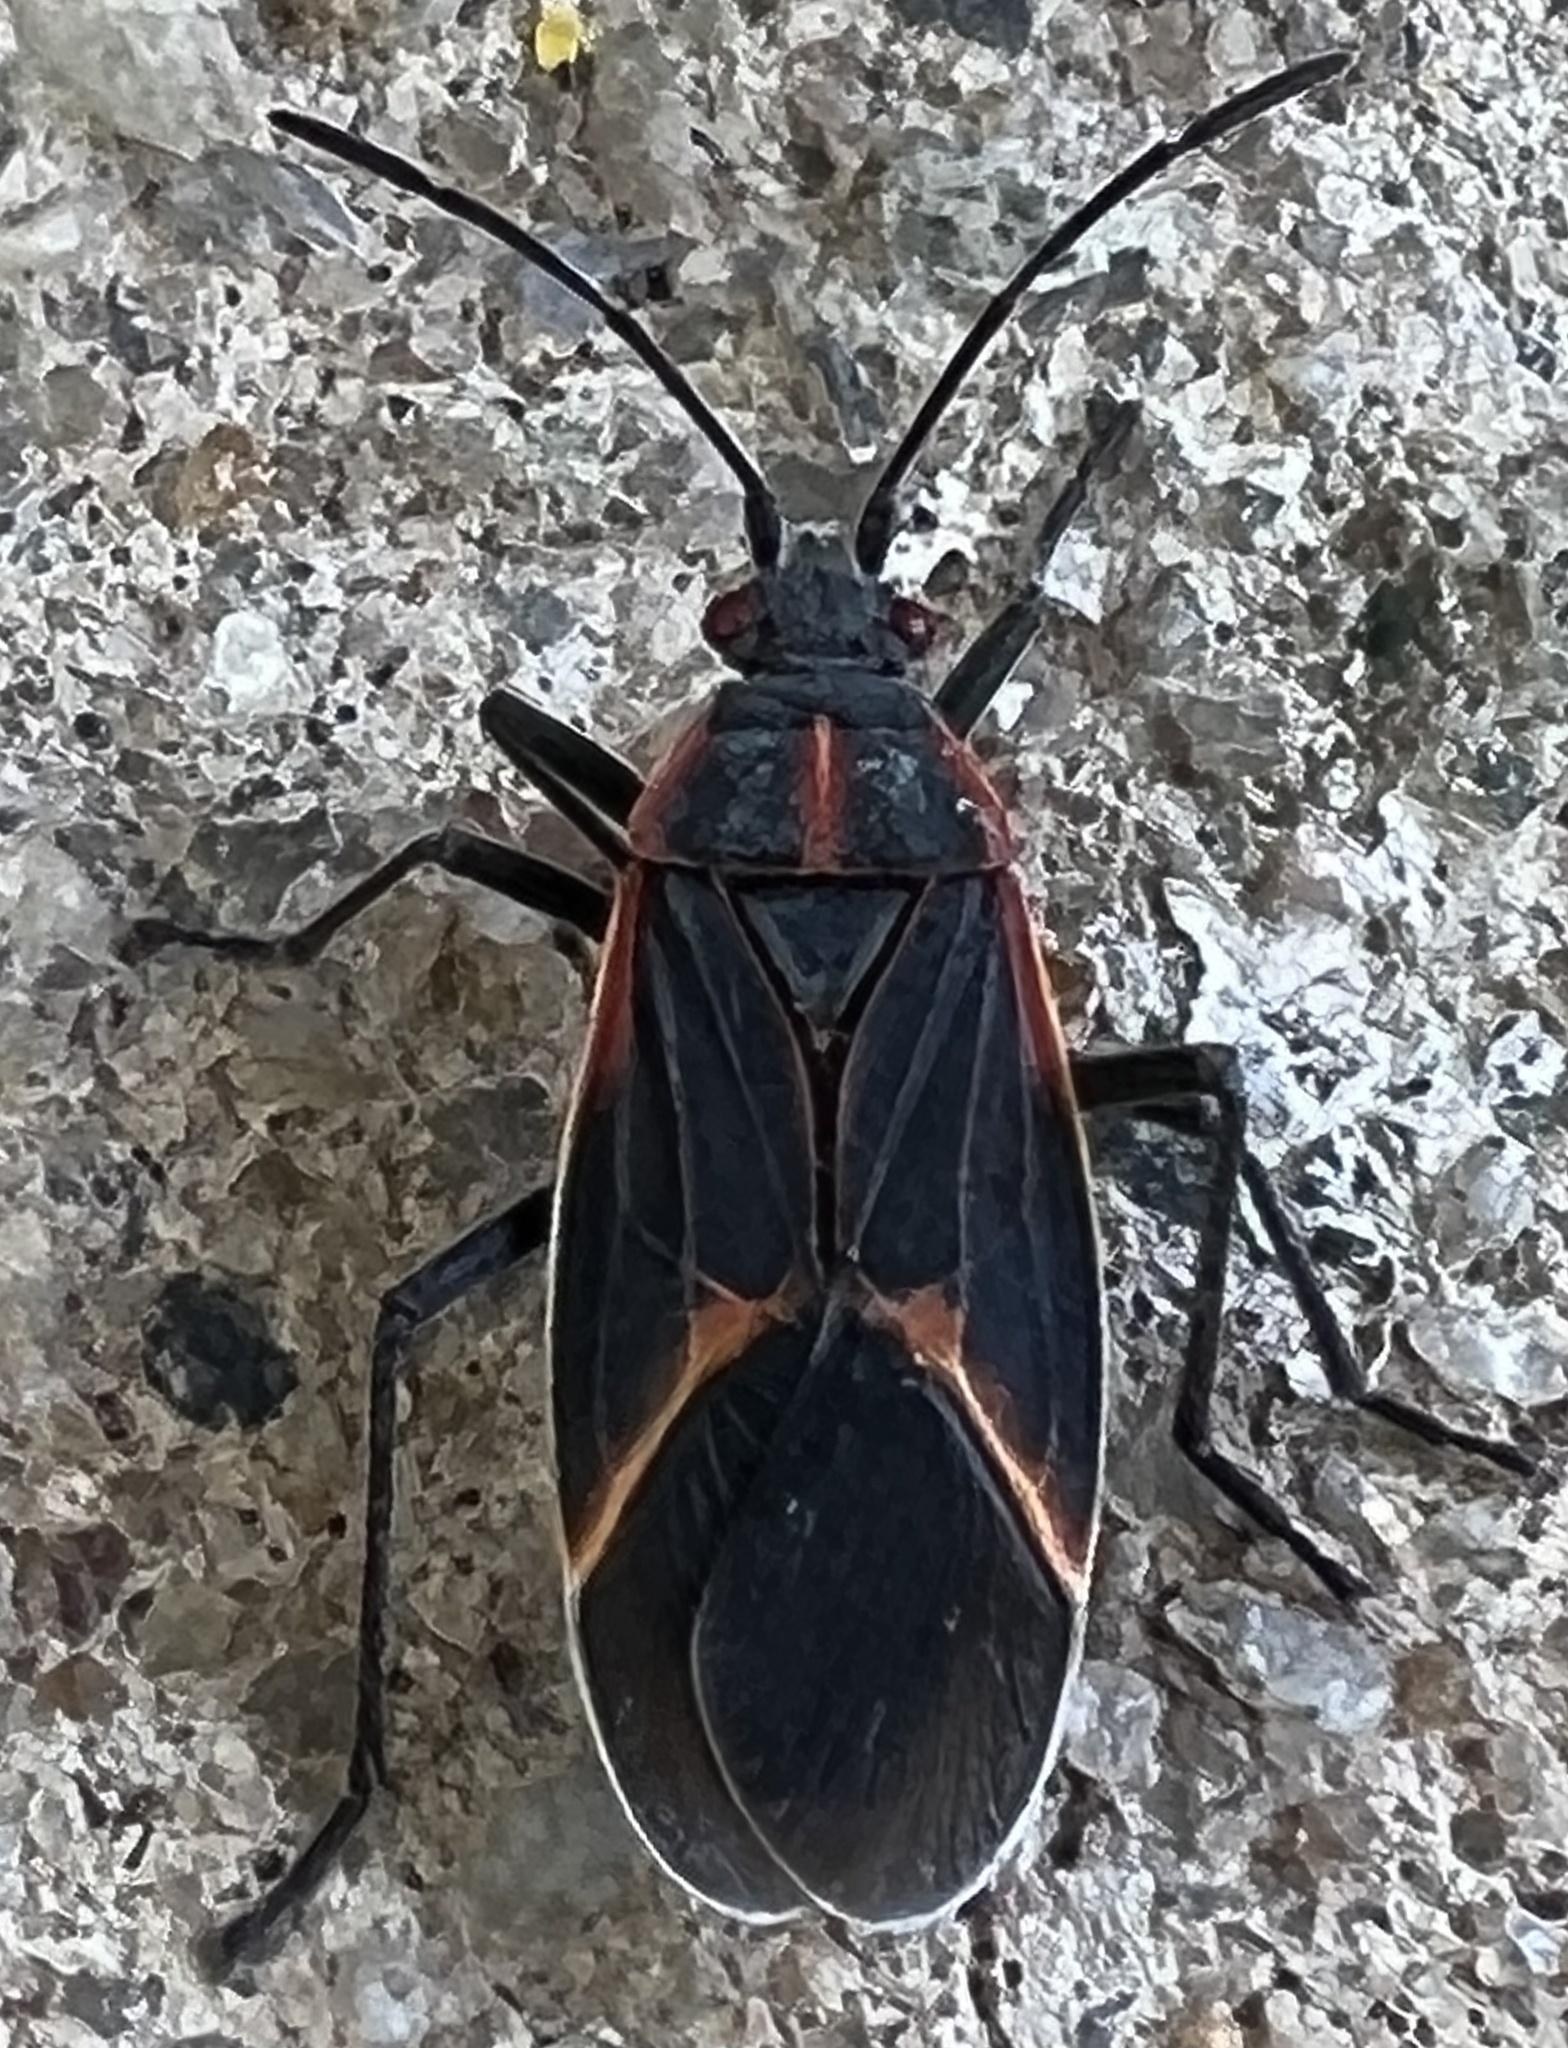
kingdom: Animalia
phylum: Arthropoda
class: Insecta
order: Hemiptera
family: Rhopalidae
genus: Boisea
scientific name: Boisea trivittata
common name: Boxelder bug
